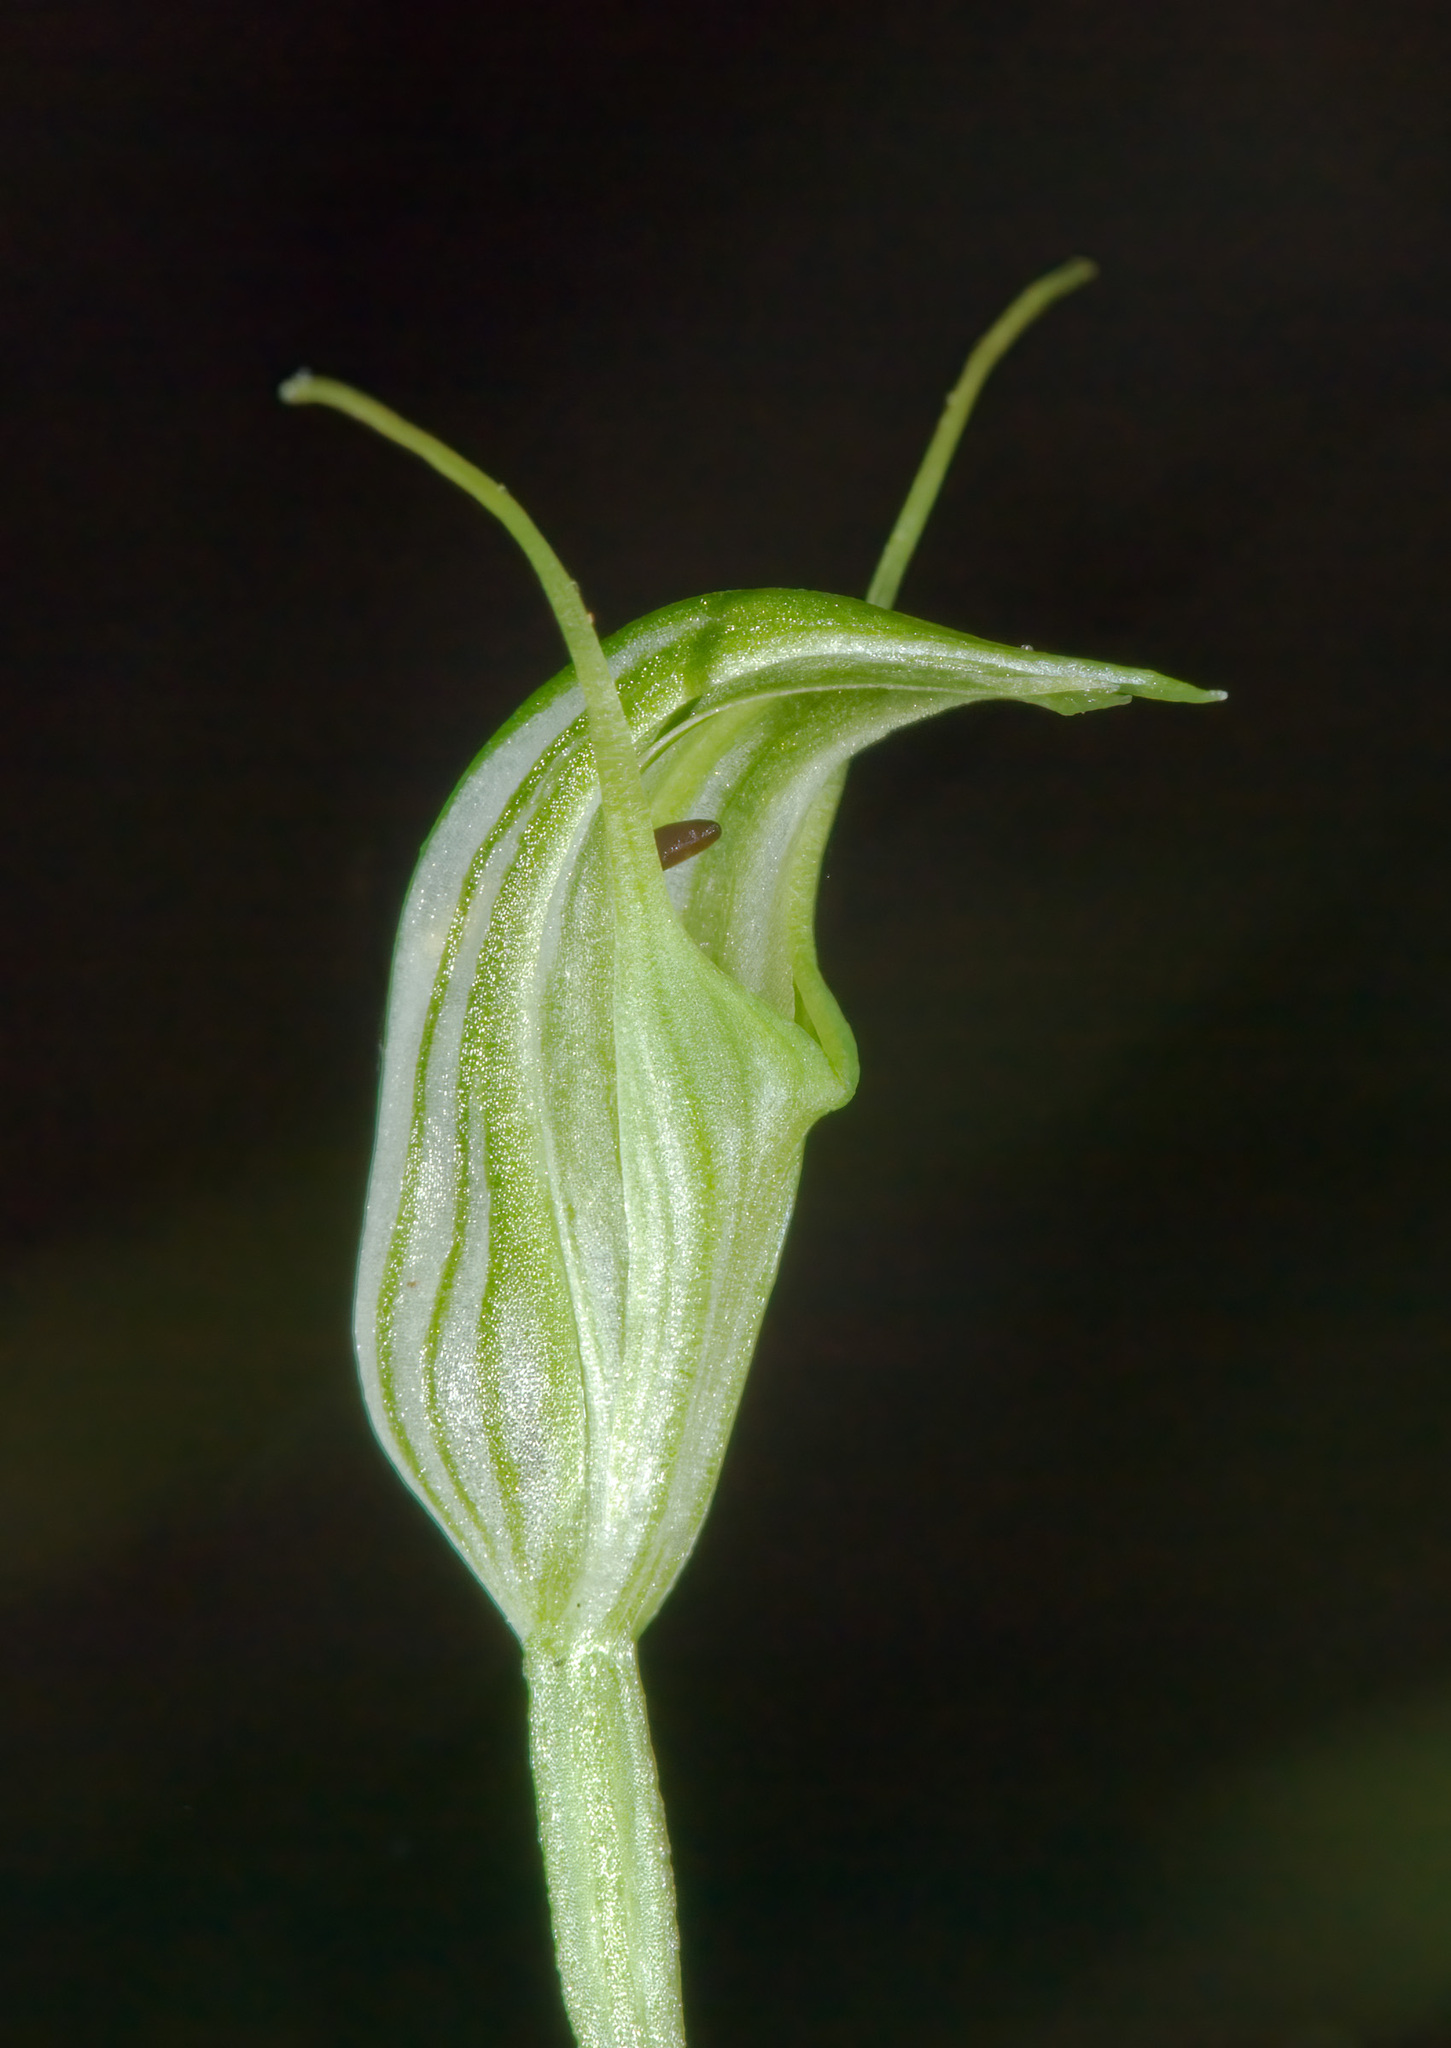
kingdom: Plantae
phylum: Tracheophyta
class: Liliopsida
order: Asparagales
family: Orchidaceae
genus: Pterostylis
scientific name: Pterostylis trullifolia
